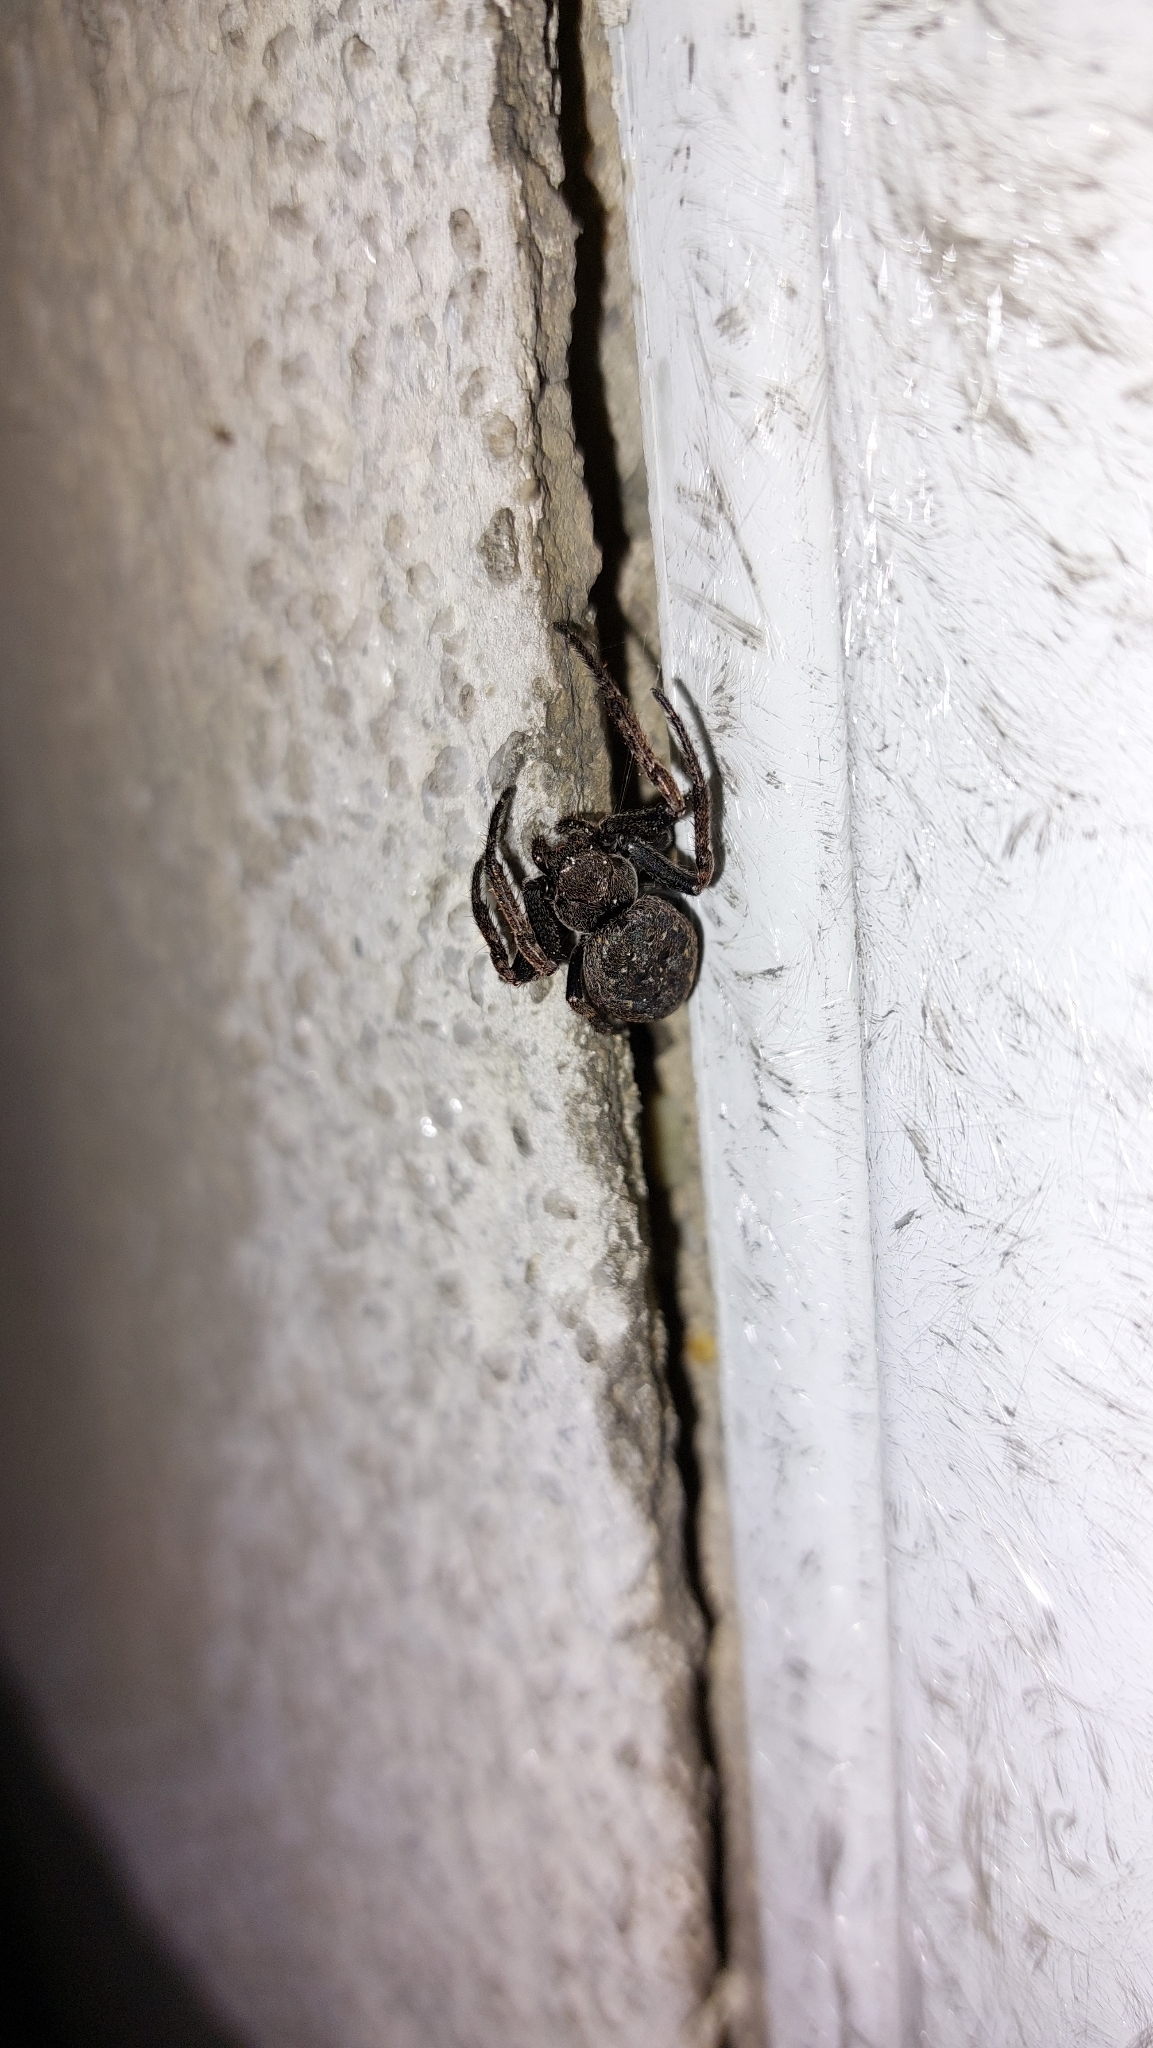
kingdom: Animalia
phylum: Arthropoda
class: Arachnida
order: Araneae
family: Araneidae
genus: Nuctenea
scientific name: Nuctenea umbratica
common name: Toad spider
